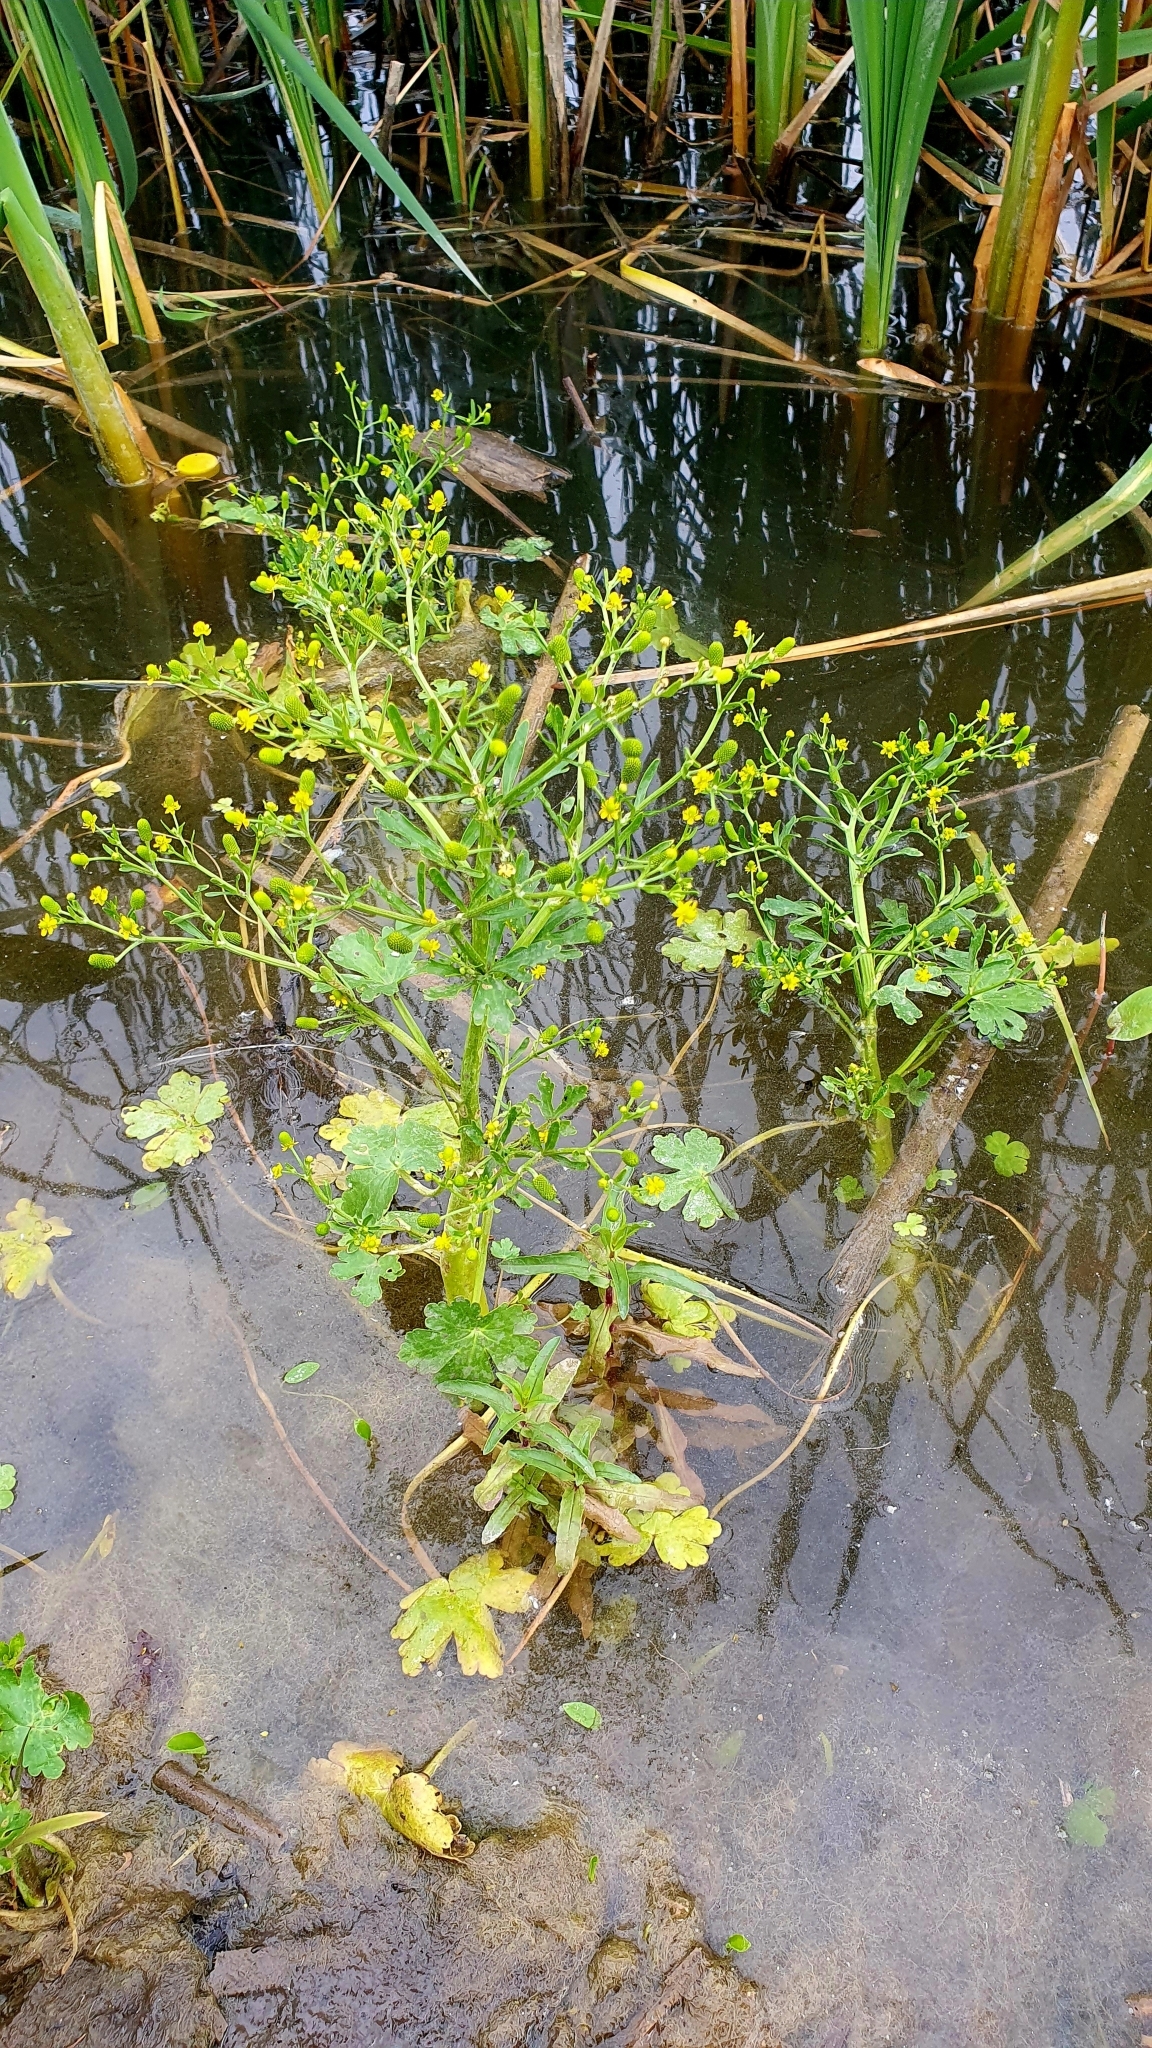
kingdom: Plantae
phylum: Tracheophyta
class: Magnoliopsida
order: Ranunculales
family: Ranunculaceae
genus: Ranunculus
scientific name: Ranunculus sceleratus
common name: Celery-leaved buttercup
